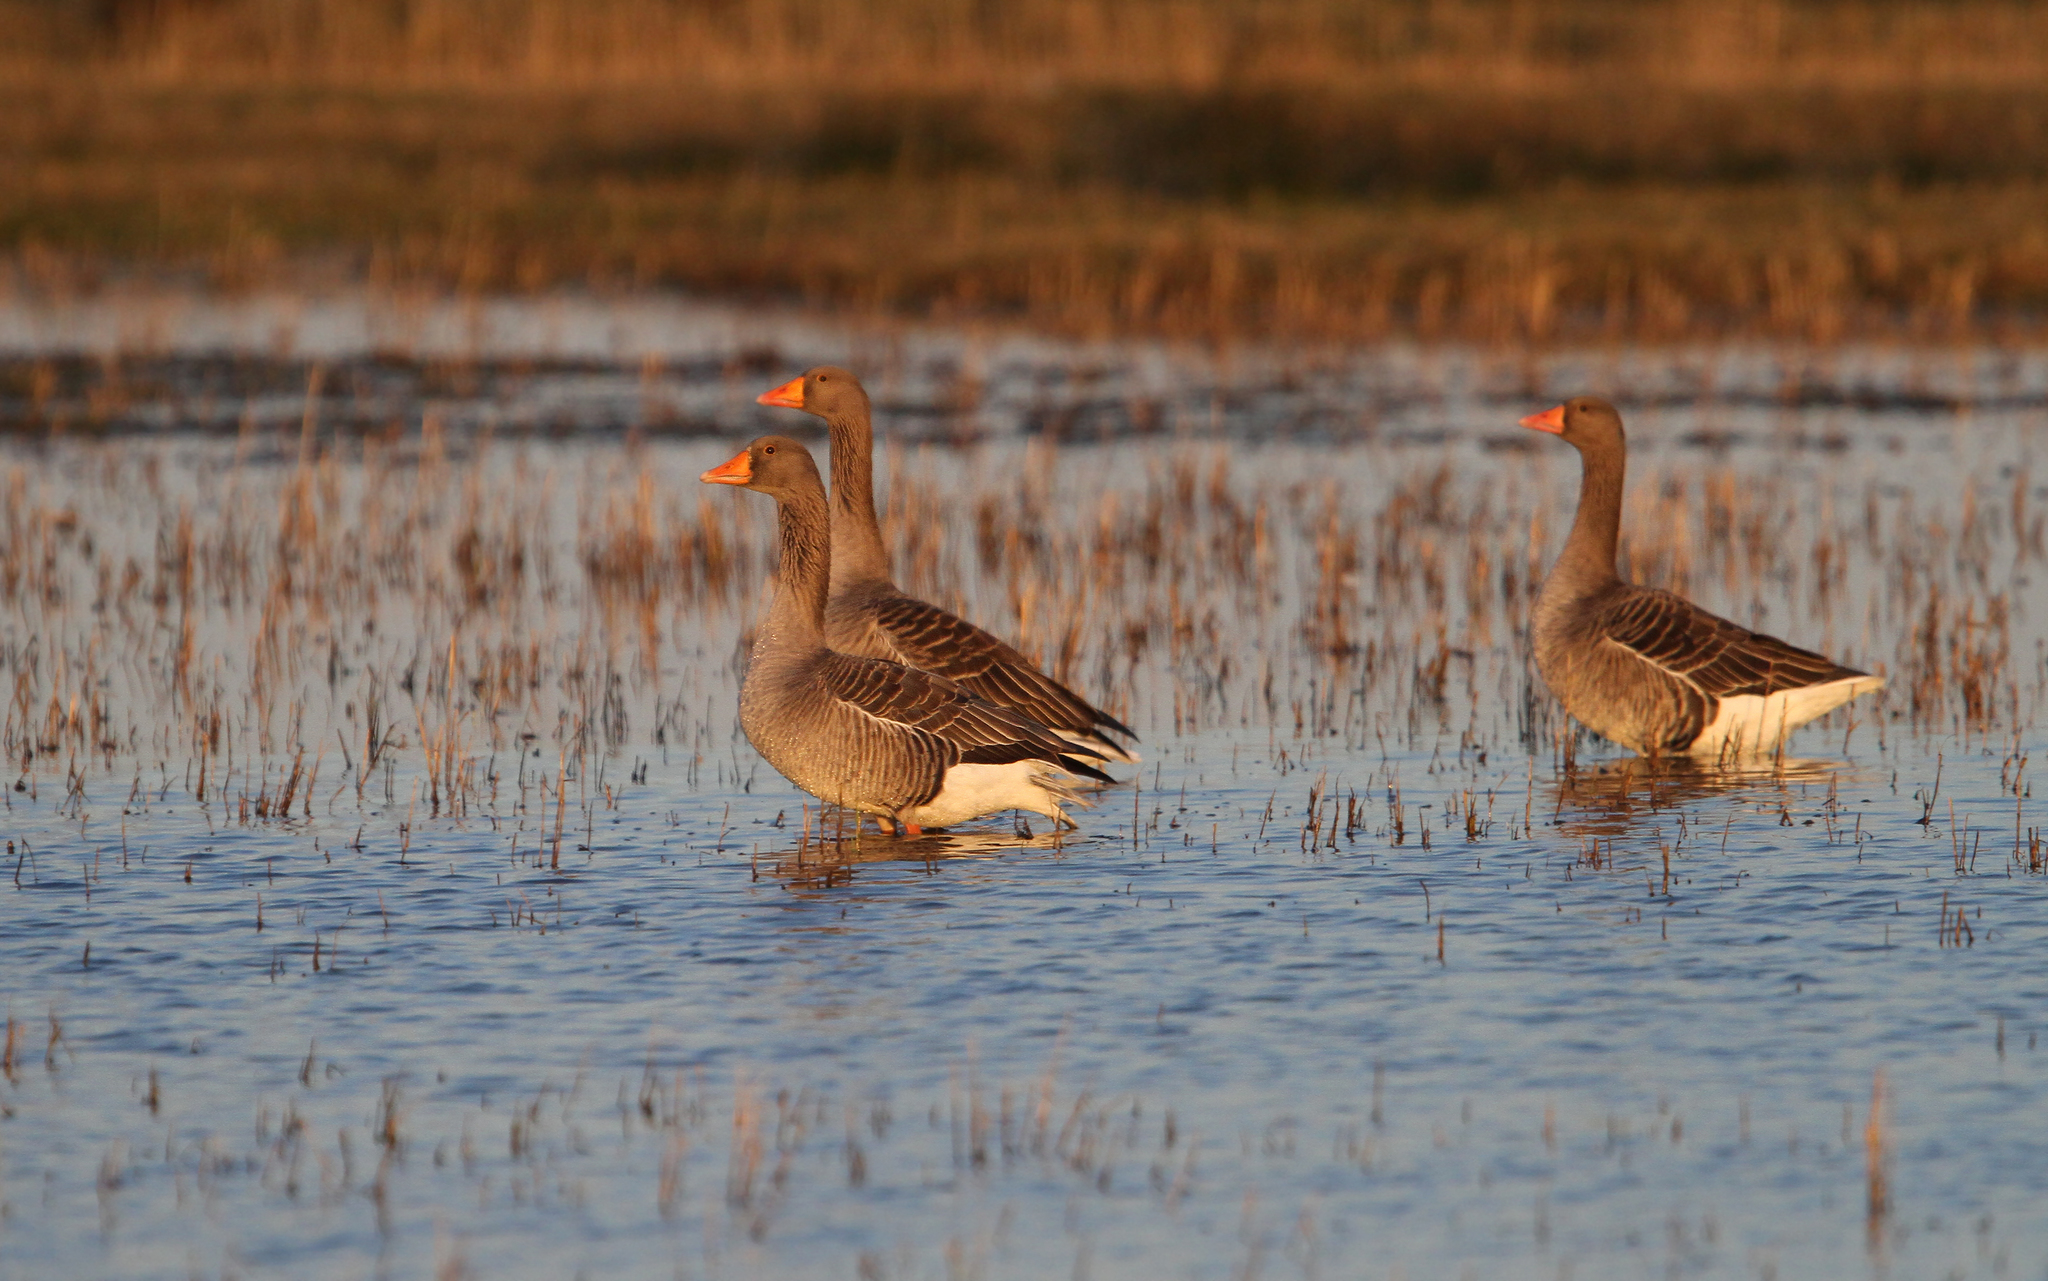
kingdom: Animalia
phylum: Chordata
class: Aves
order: Anseriformes
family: Anatidae
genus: Anser
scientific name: Anser anser
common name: Greylag goose
